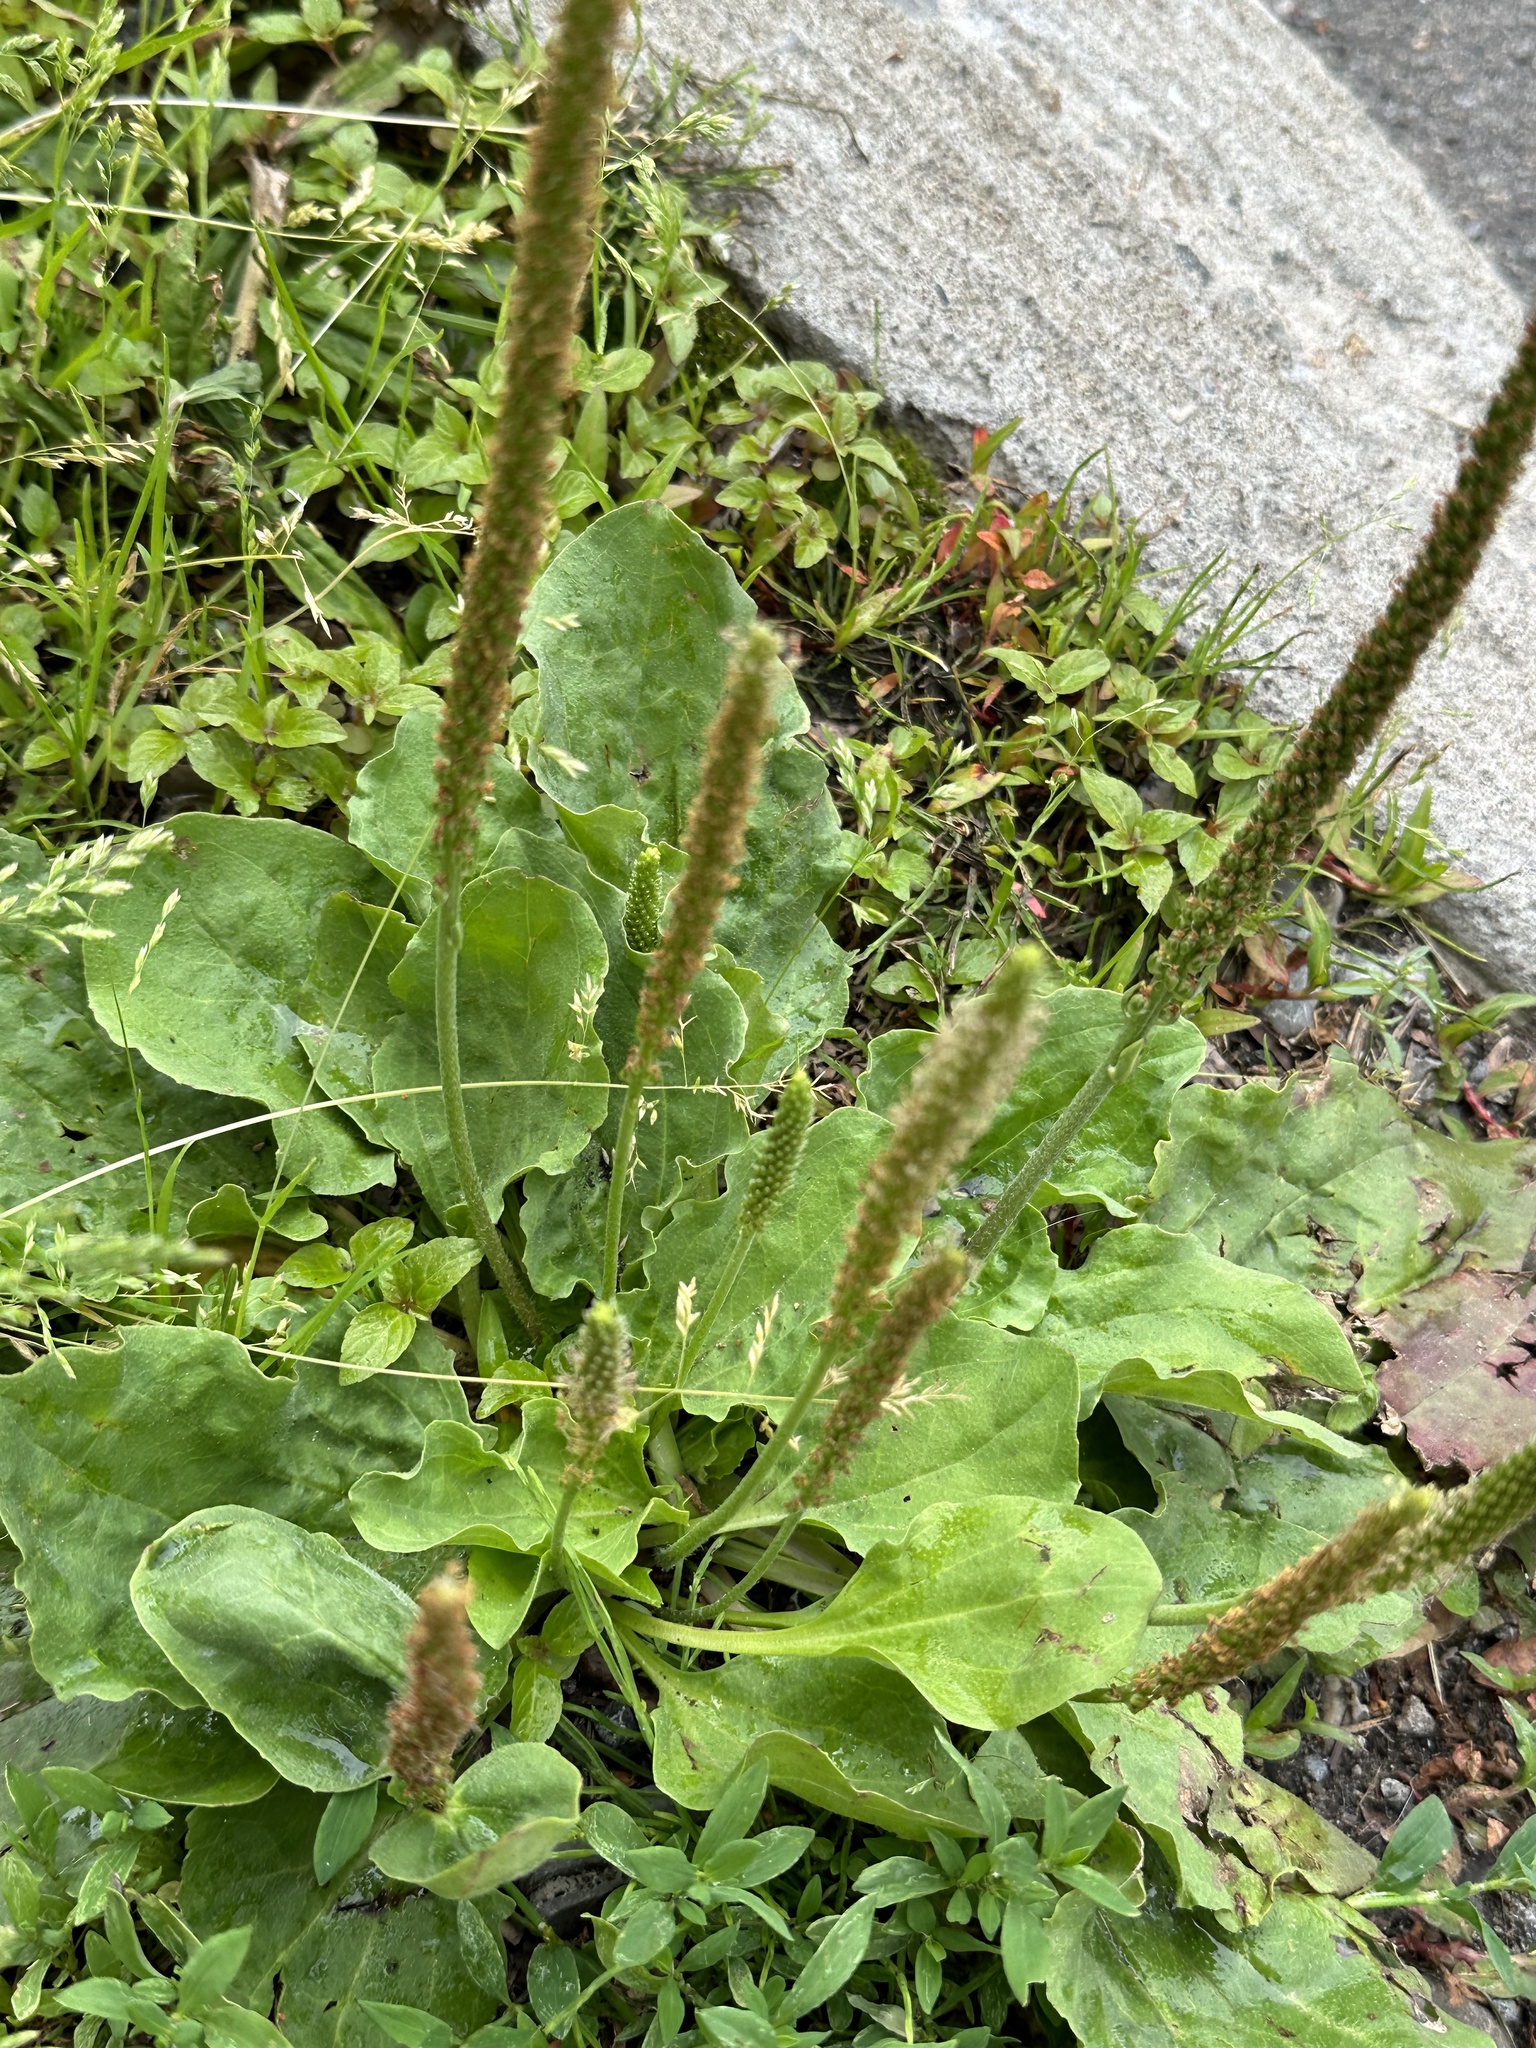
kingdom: Plantae
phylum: Tracheophyta
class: Magnoliopsida
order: Lamiales
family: Plantaginaceae
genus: Plantago
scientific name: Plantago major
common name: Common plantain
